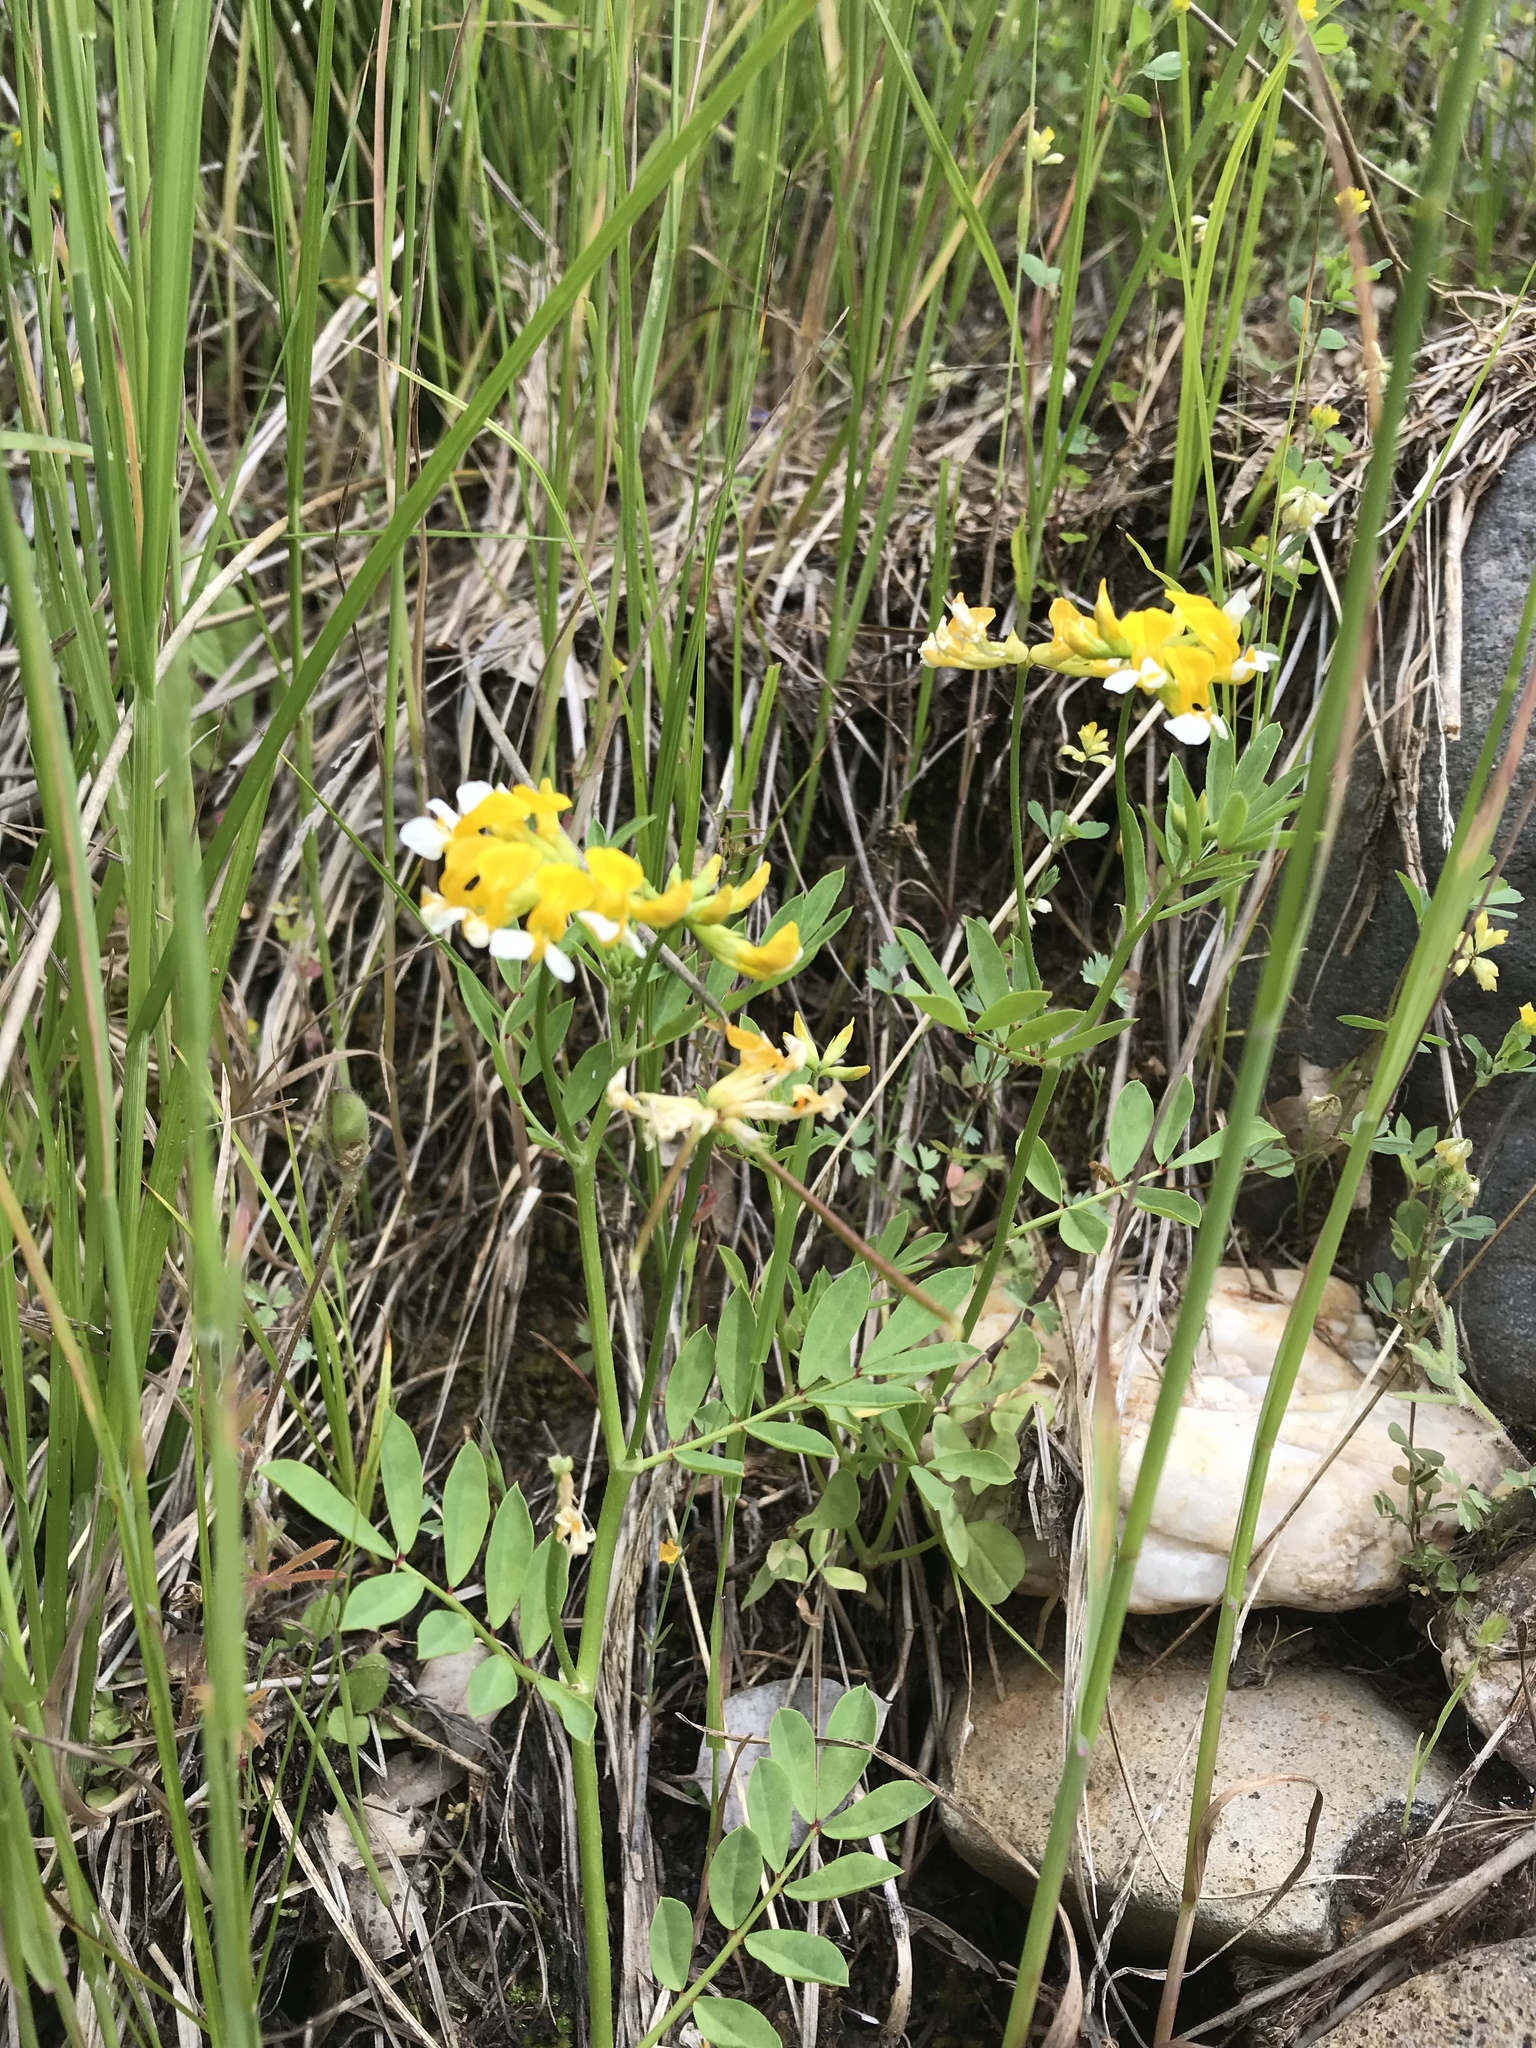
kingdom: Plantae
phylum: Tracheophyta
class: Magnoliopsida
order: Fabales
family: Fabaceae
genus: Hosackia
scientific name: Hosackia oblongifolia
